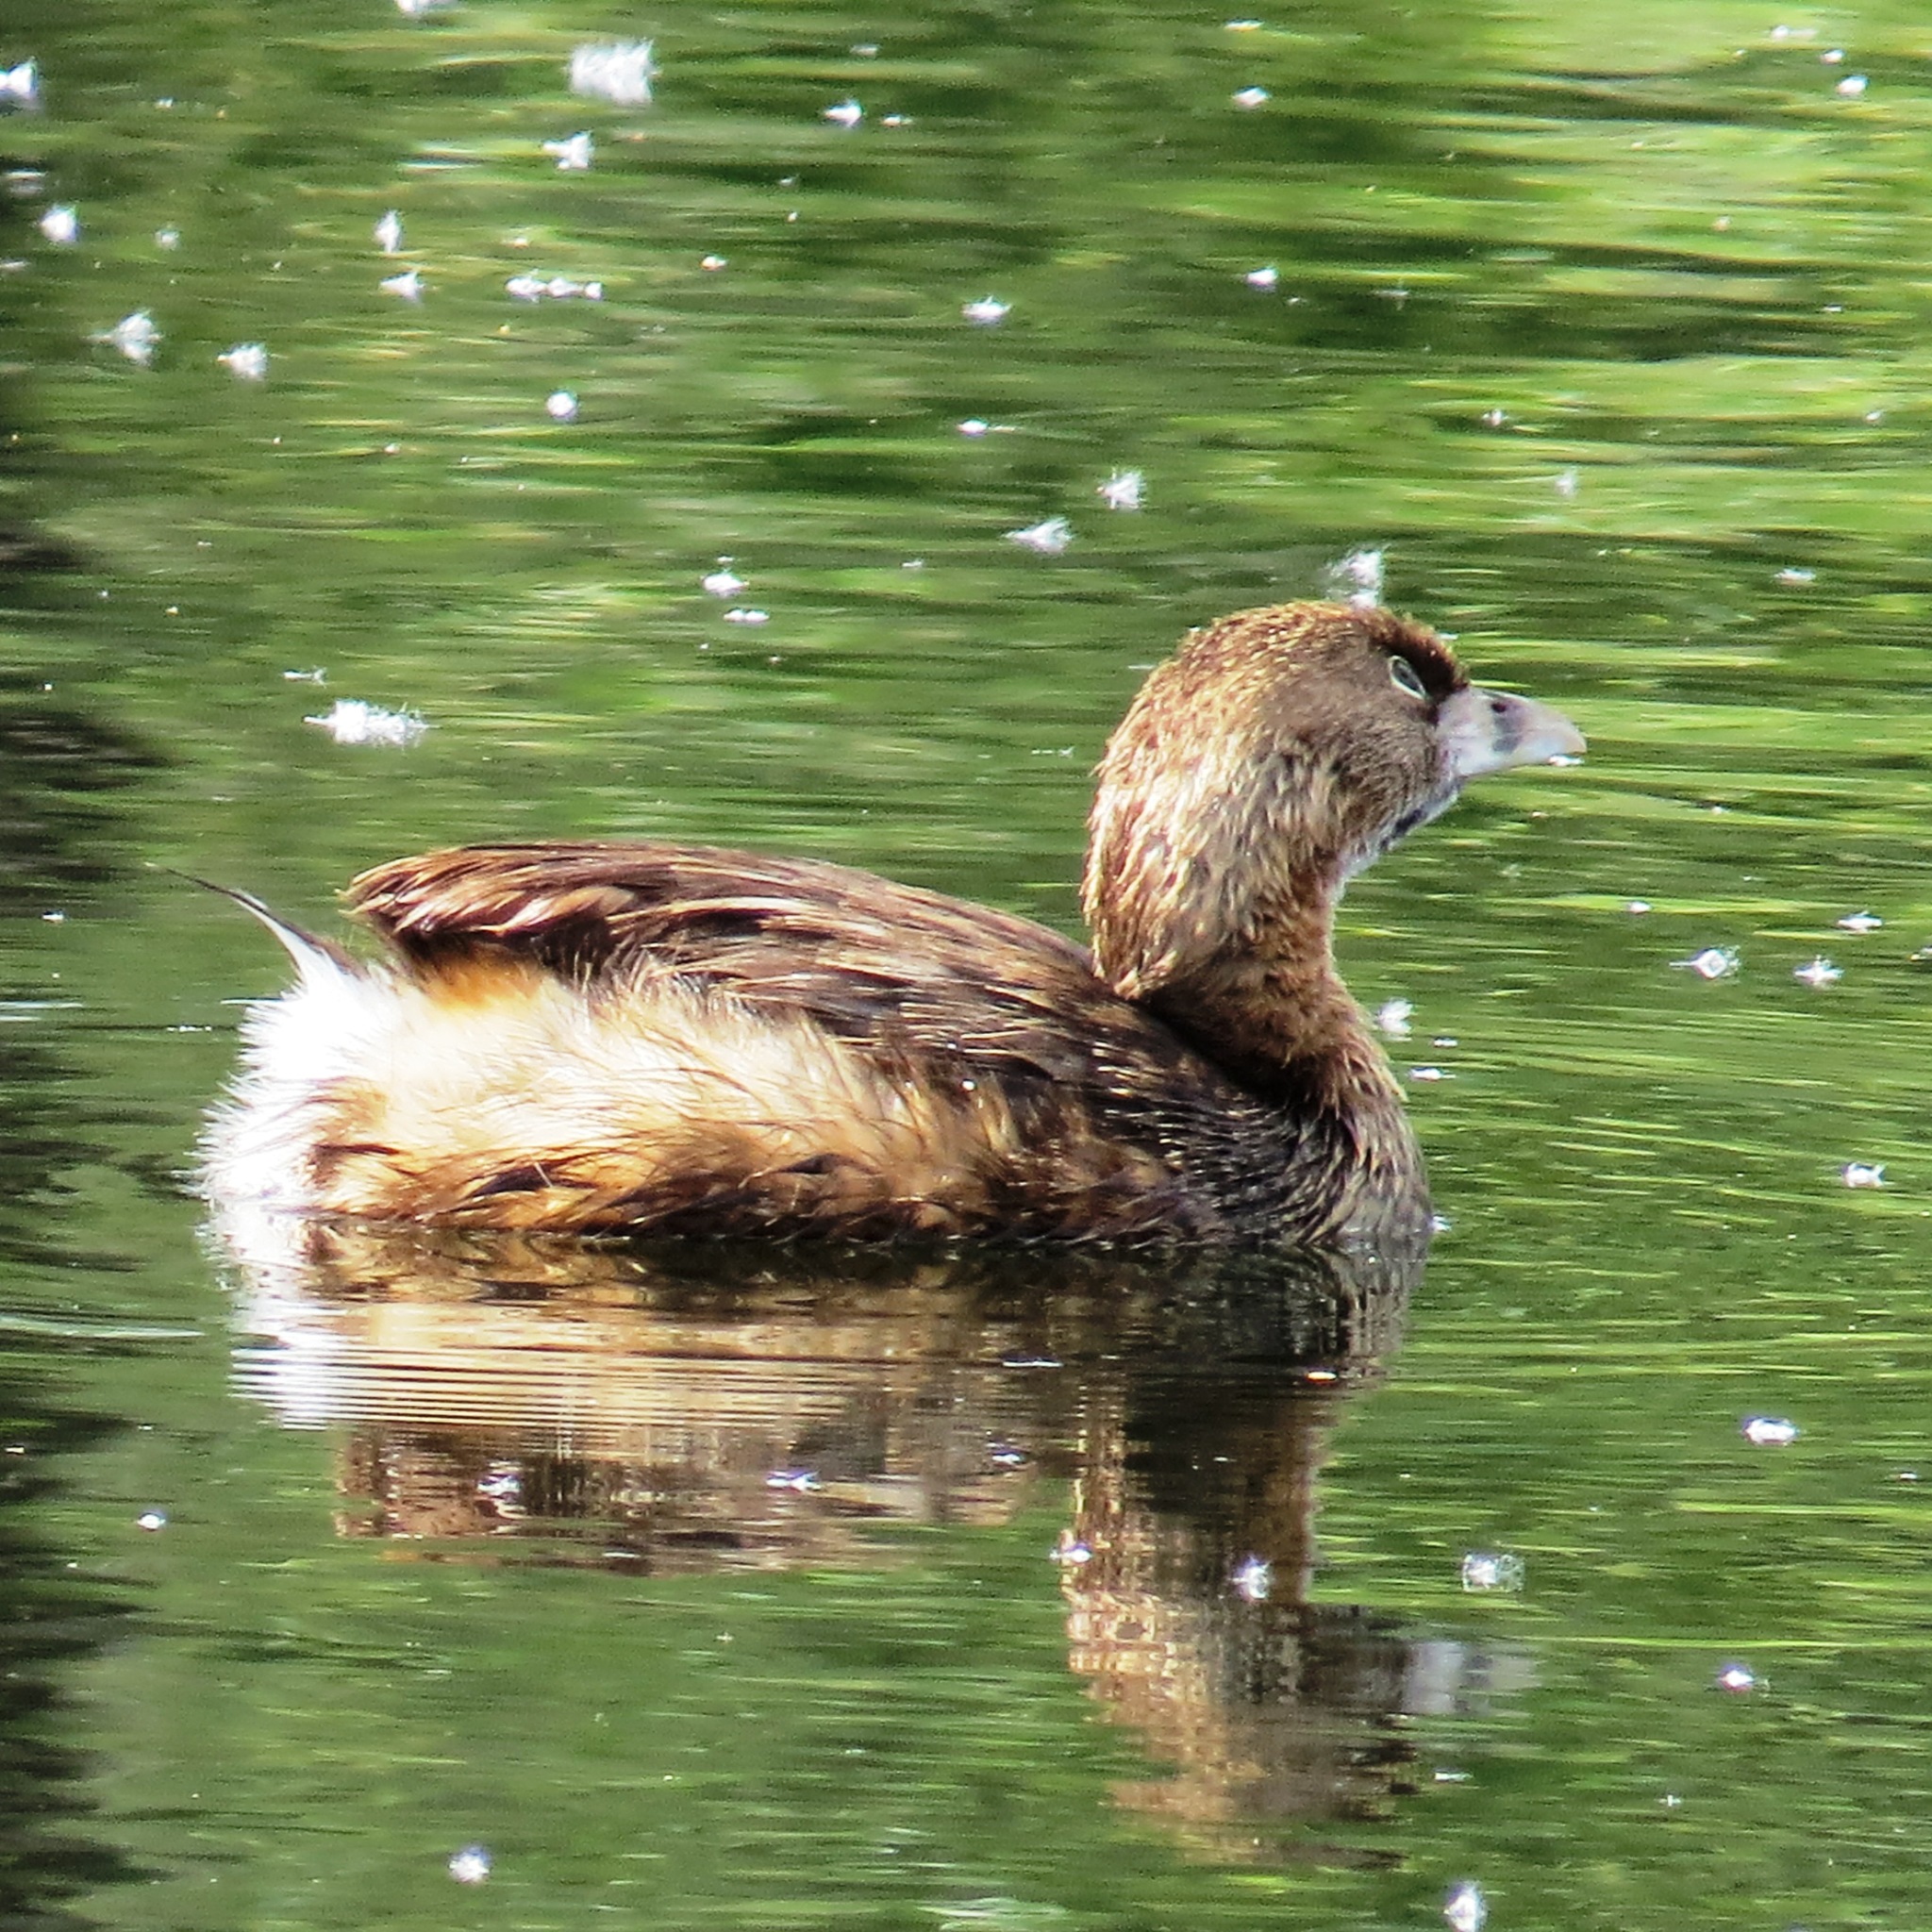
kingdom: Animalia
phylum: Chordata
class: Aves
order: Podicipediformes
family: Podicipedidae
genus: Podilymbus
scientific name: Podilymbus podiceps
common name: Pied-billed grebe
